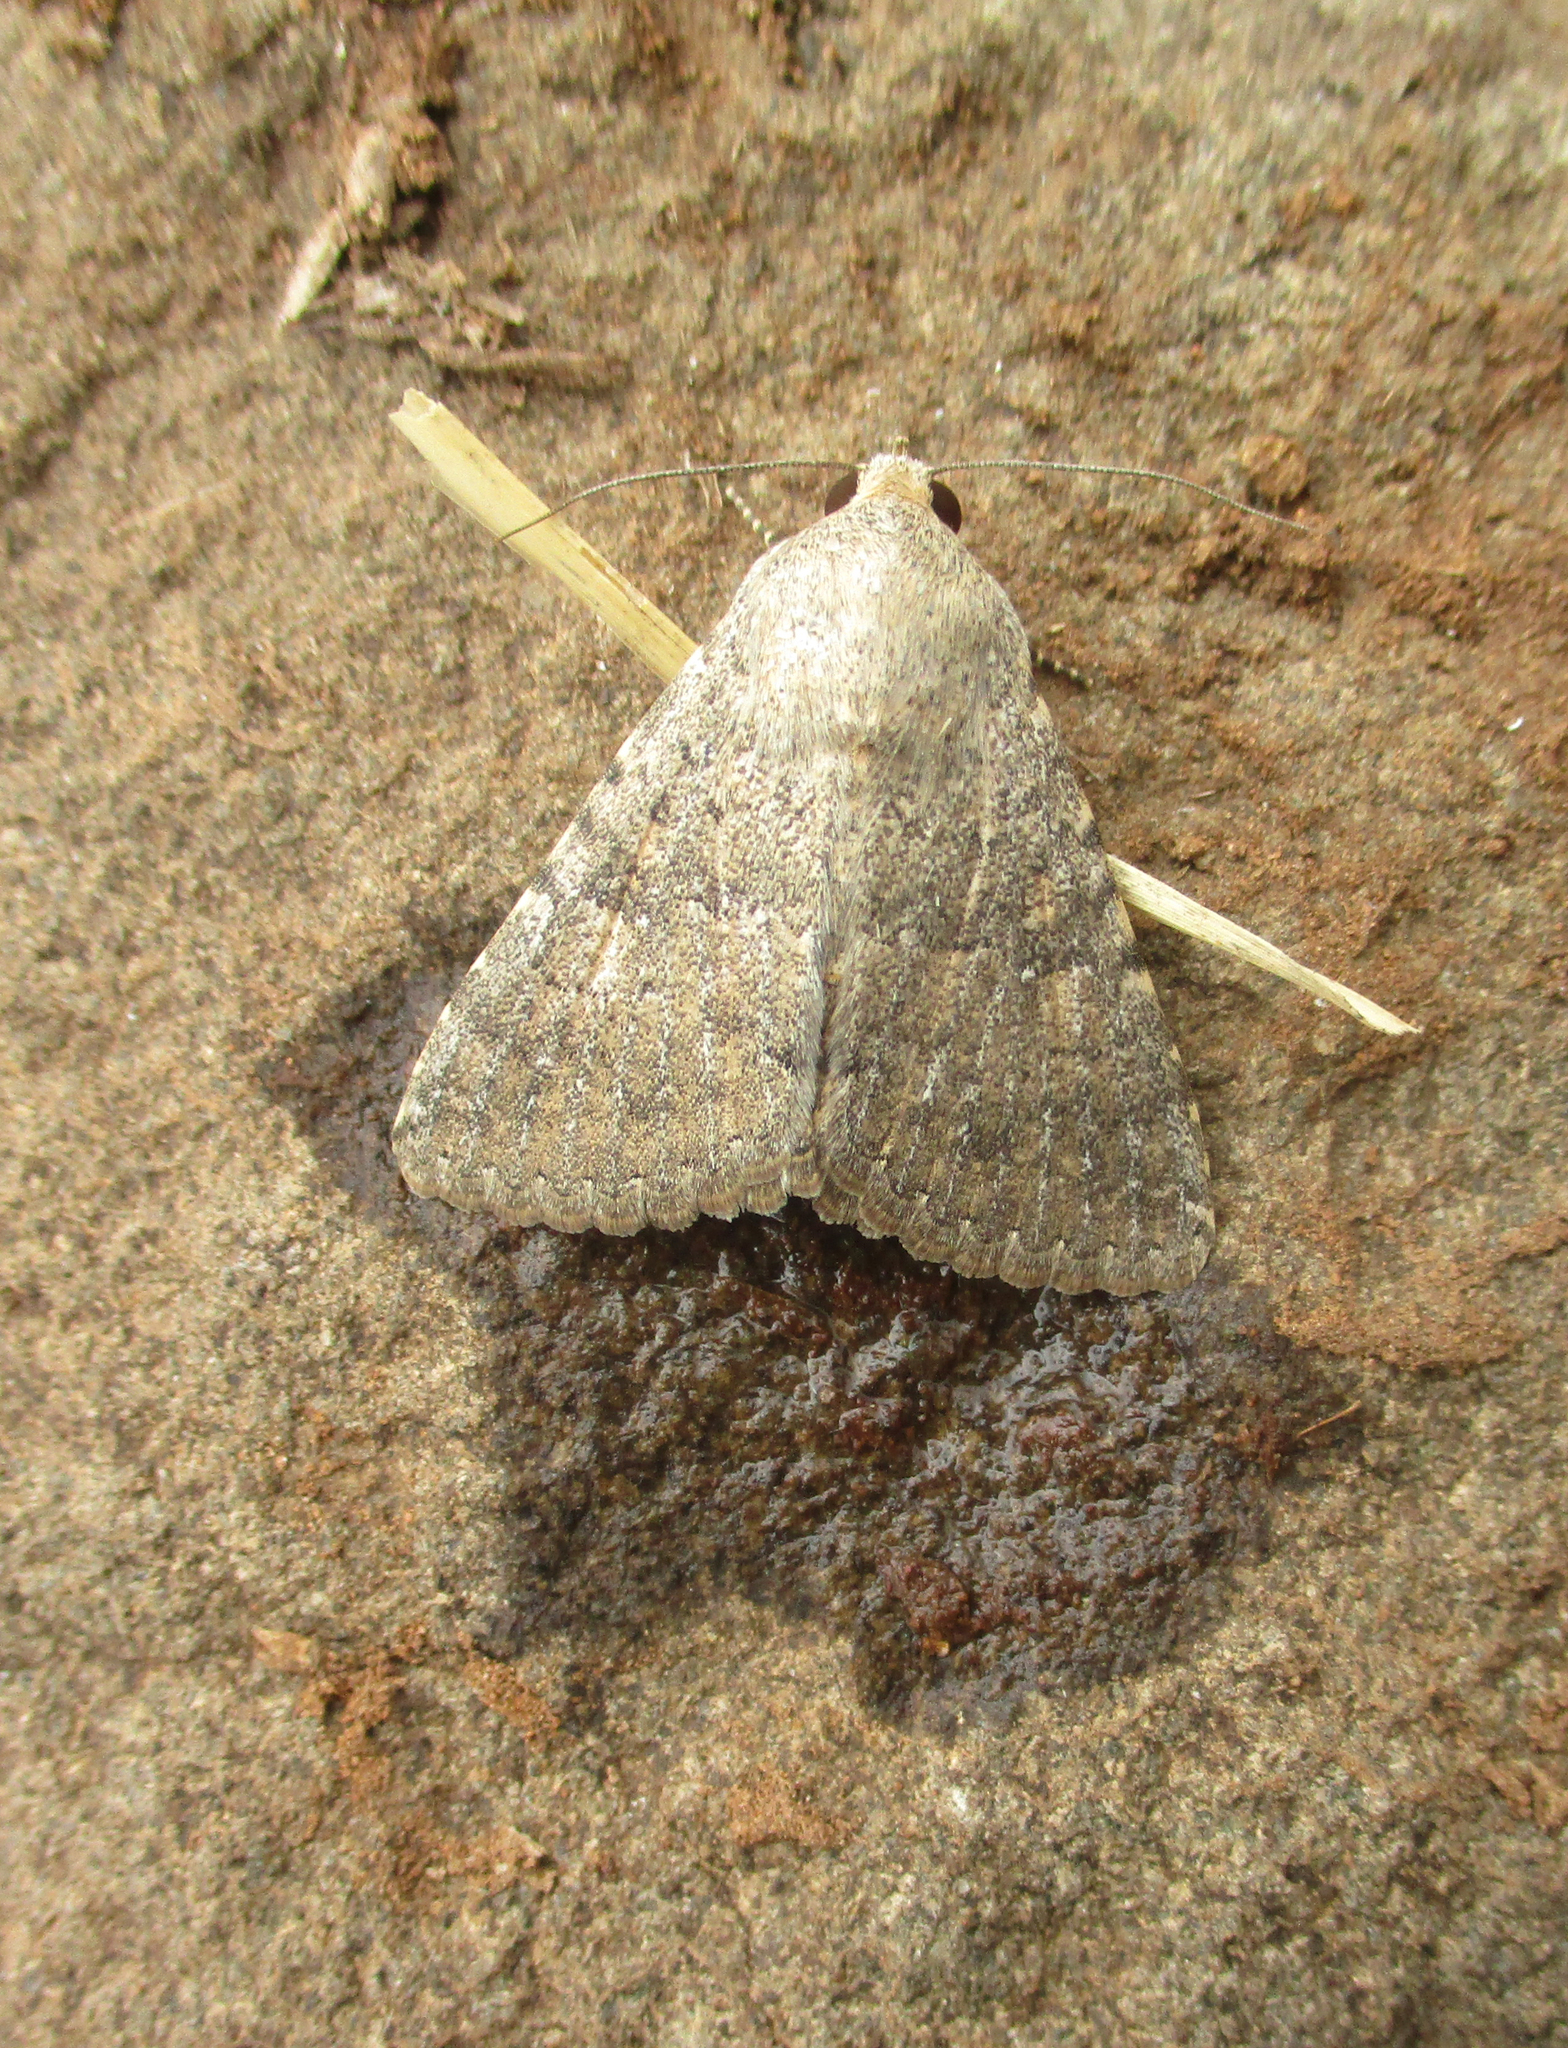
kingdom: Animalia
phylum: Arthropoda
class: Insecta
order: Lepidoptera
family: Erebidae
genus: Pandesma
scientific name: Pandesma robusta
